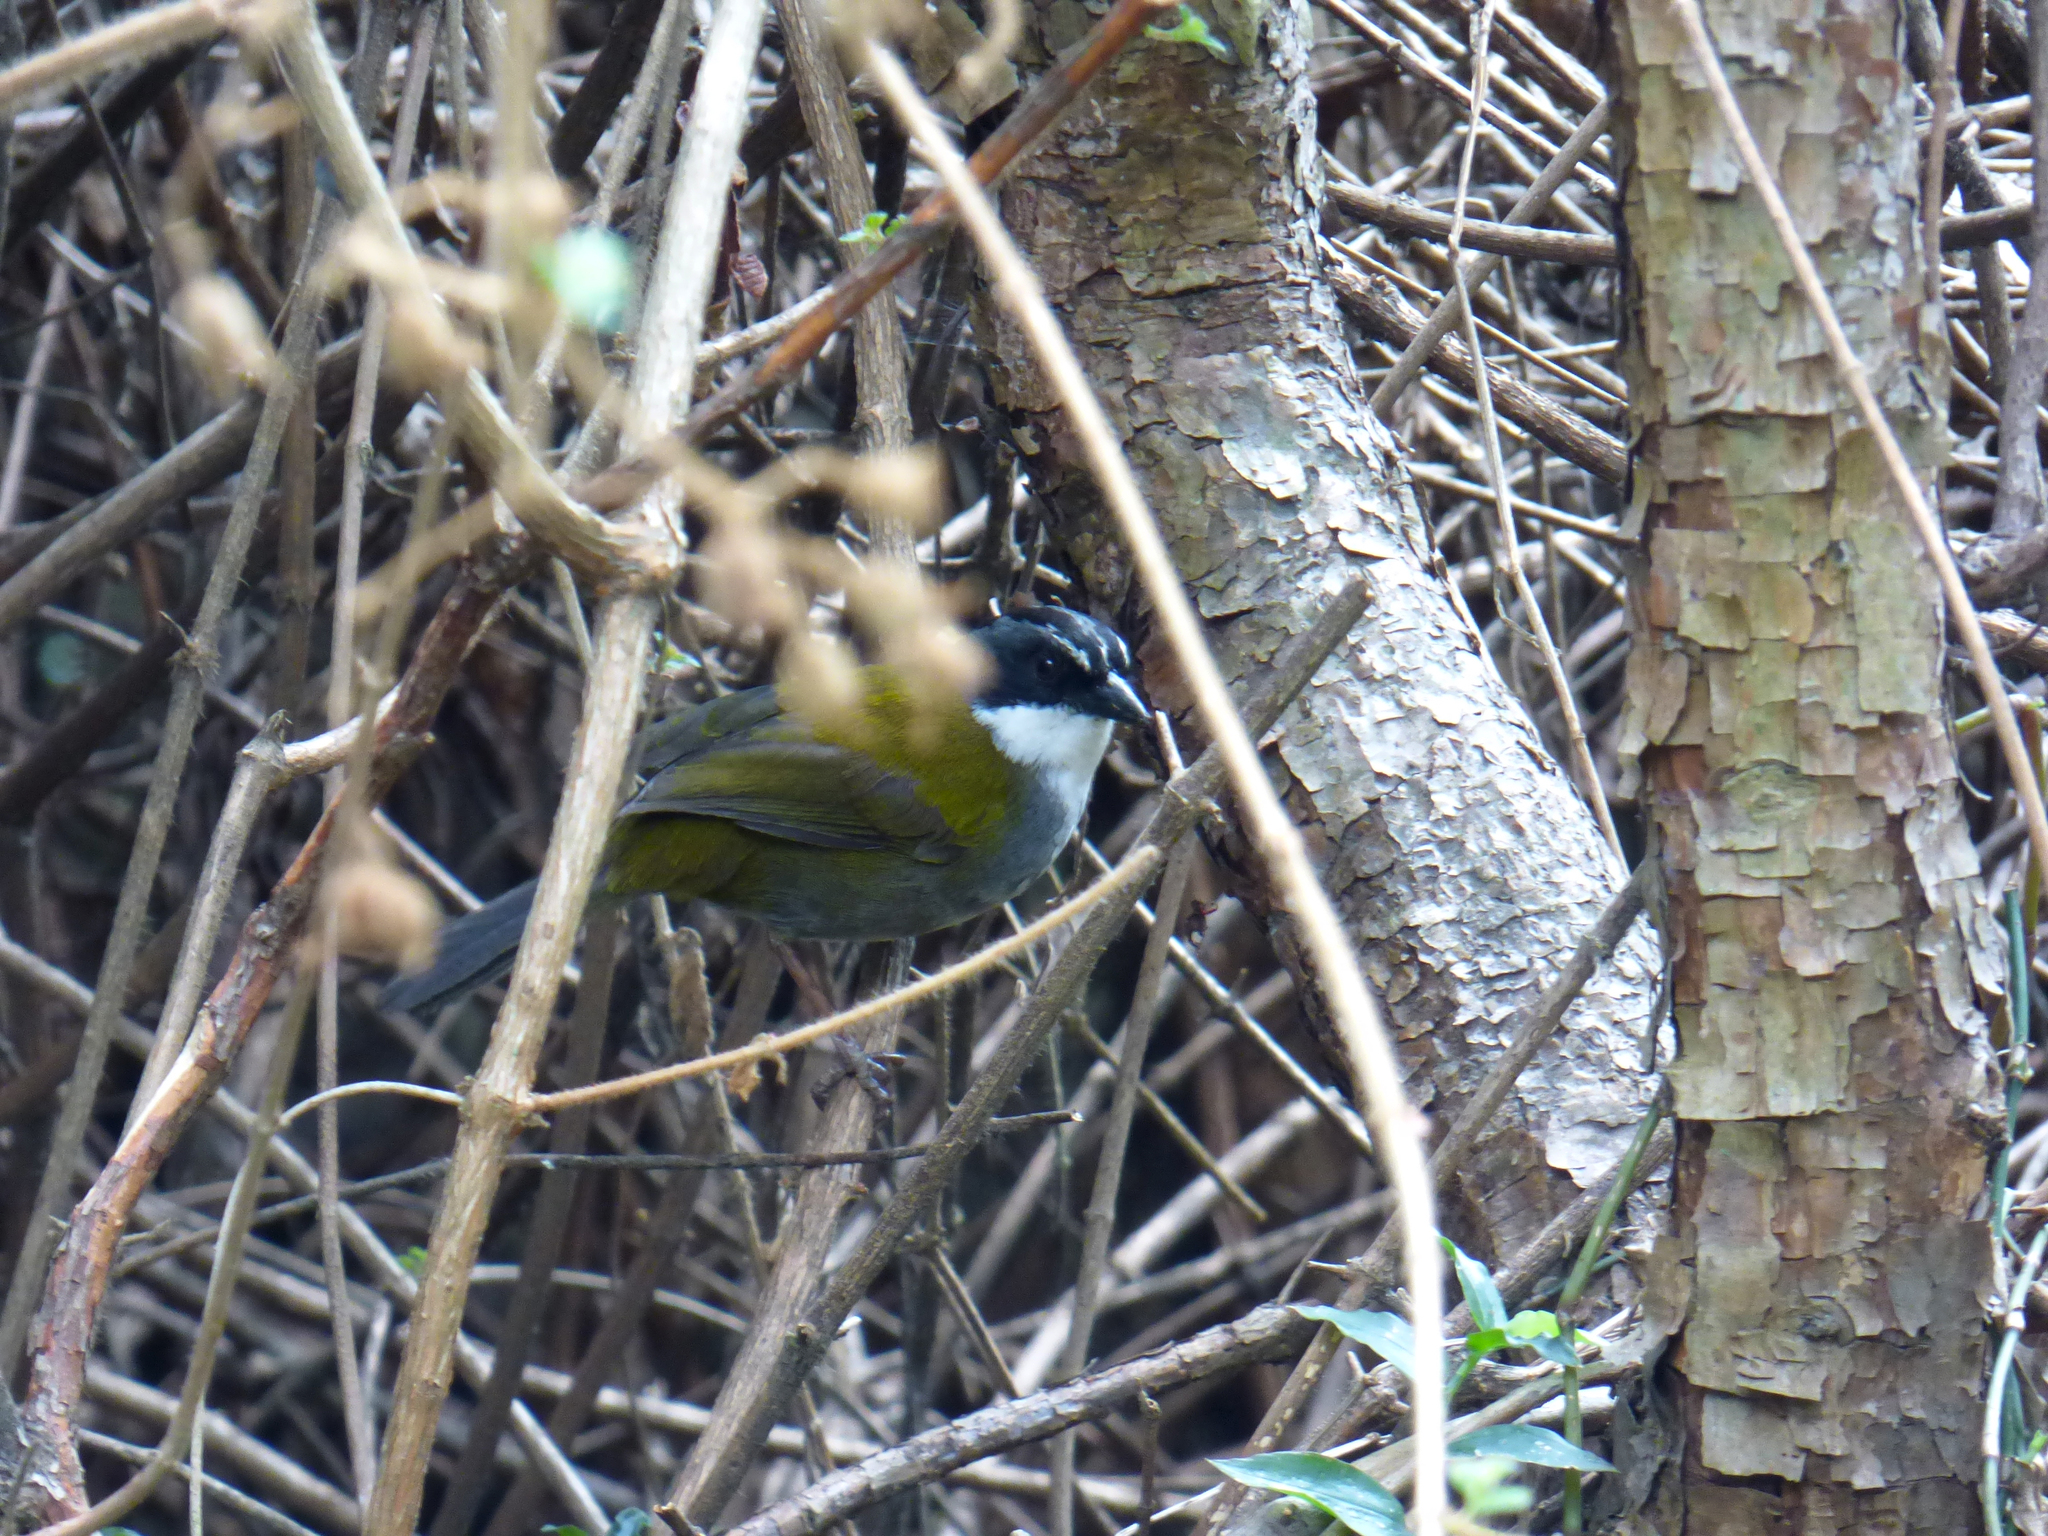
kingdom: Animalia
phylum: Chordata
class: Aves
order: Passeriformes
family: Passerellidae
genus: Arremon
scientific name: Arremon assimilis
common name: Grey-browed brushfinch
